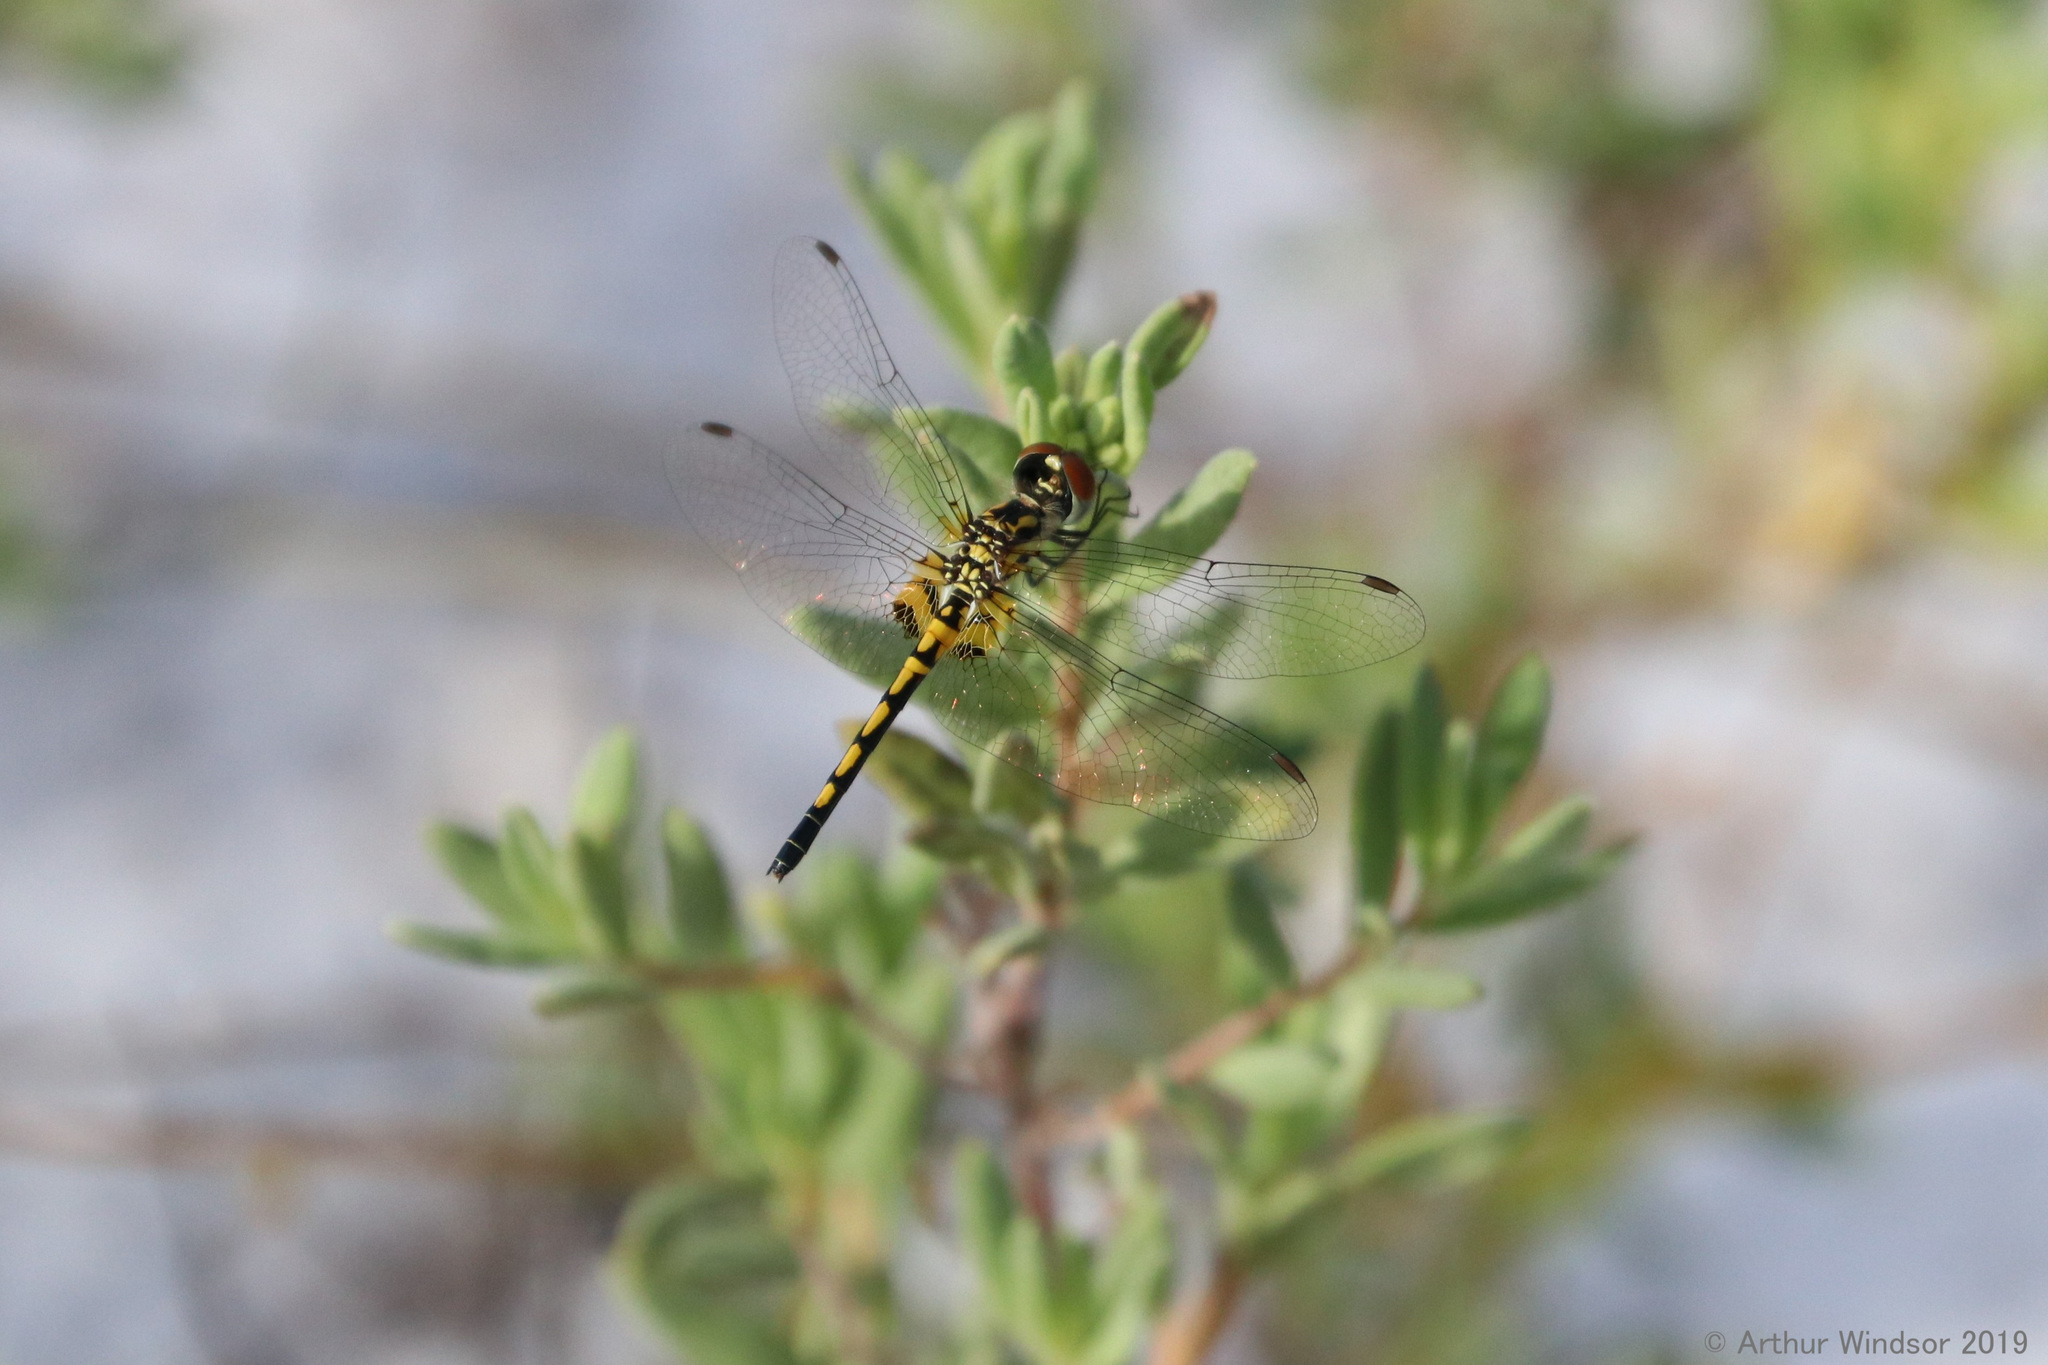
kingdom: Animalia
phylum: Arthropoda
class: Insecta
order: Odonata
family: Libellulidae
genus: Celithemis
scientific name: Celithemis ornata
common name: Ornate pennant
